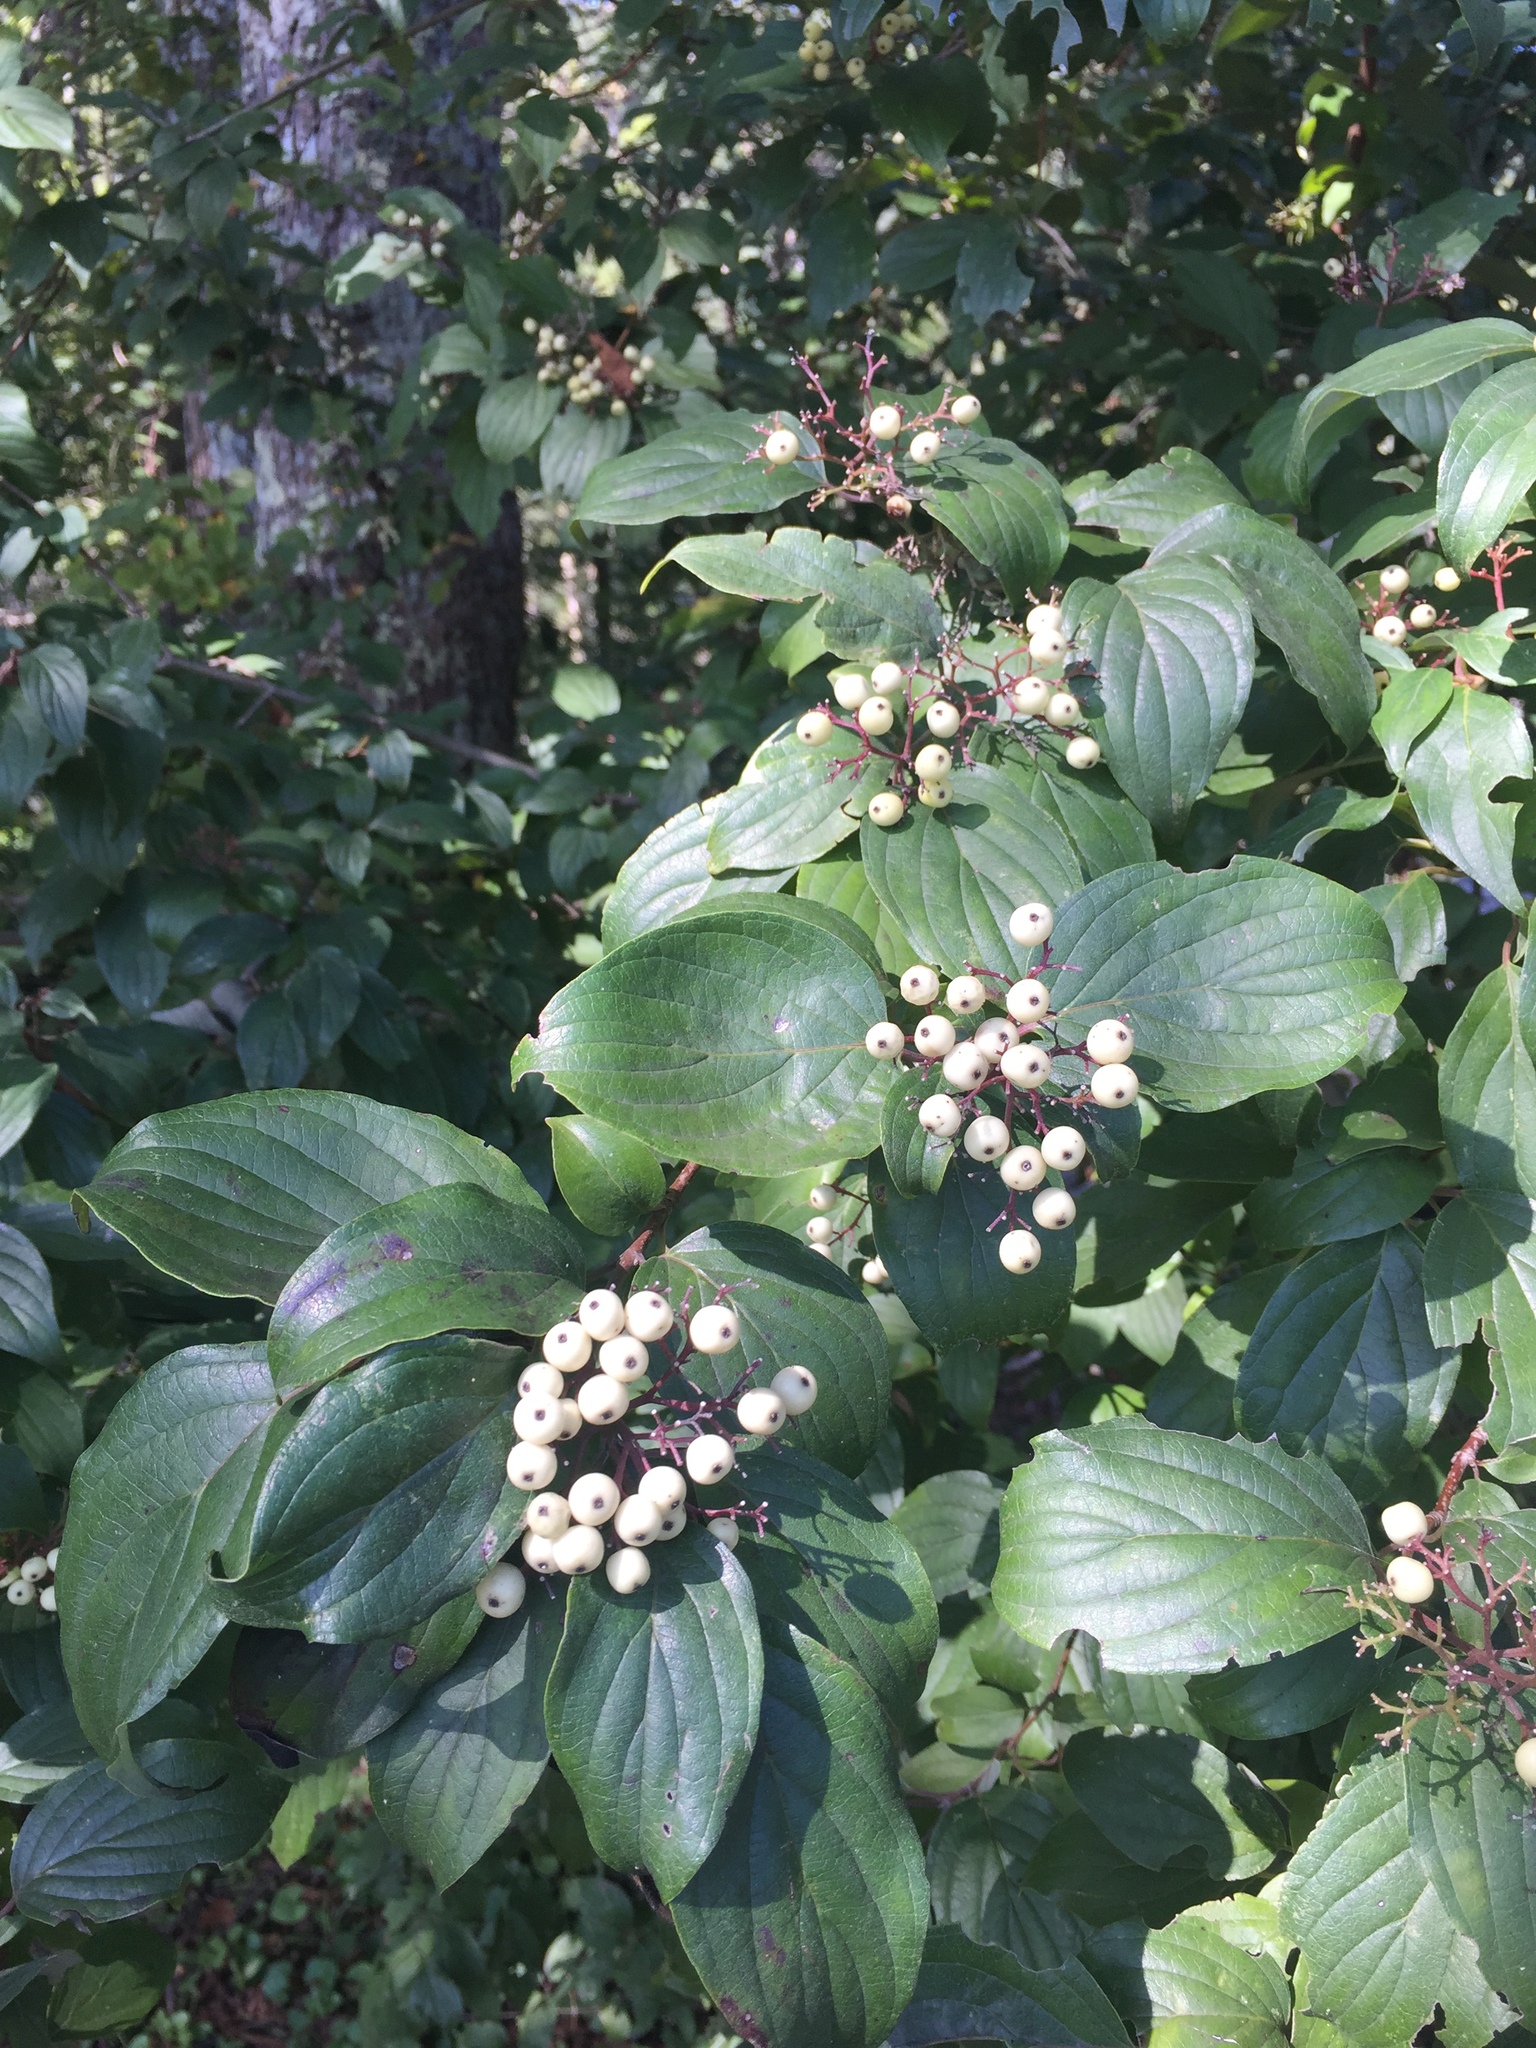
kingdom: Plantae
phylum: Tracheophyta
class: Magnoliopsida
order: Cornales
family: Cornaceae
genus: Cornus
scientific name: Cornus drummondii
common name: Rough-leaf dogwood
